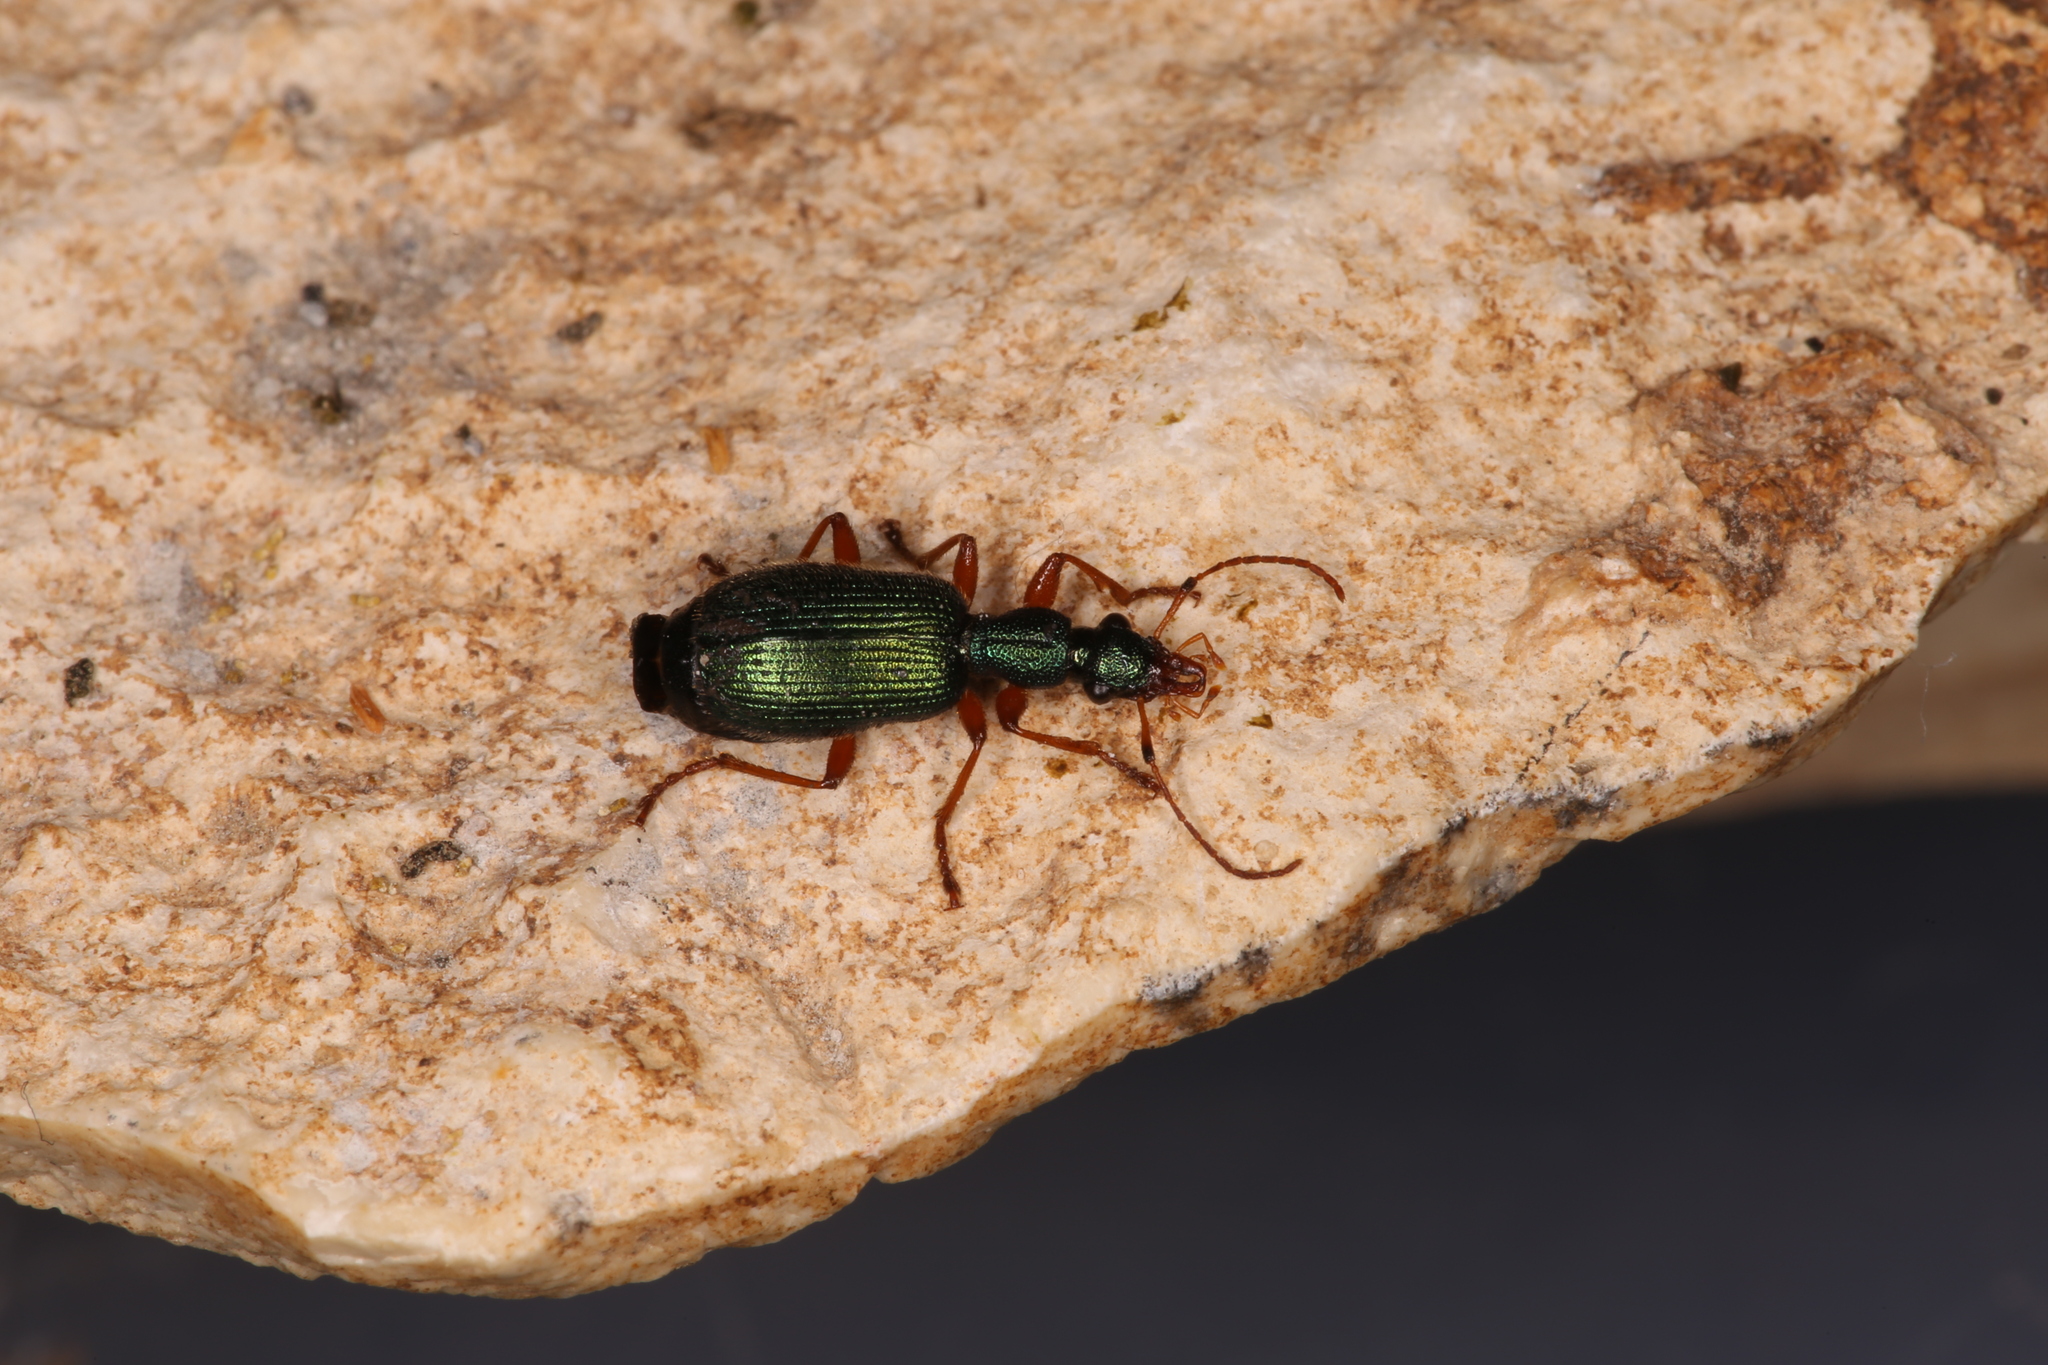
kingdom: Animalia
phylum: Arthropoda
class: Insecta
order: Coleoptera
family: Carabidae
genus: Drypta
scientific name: Drypta dentata
